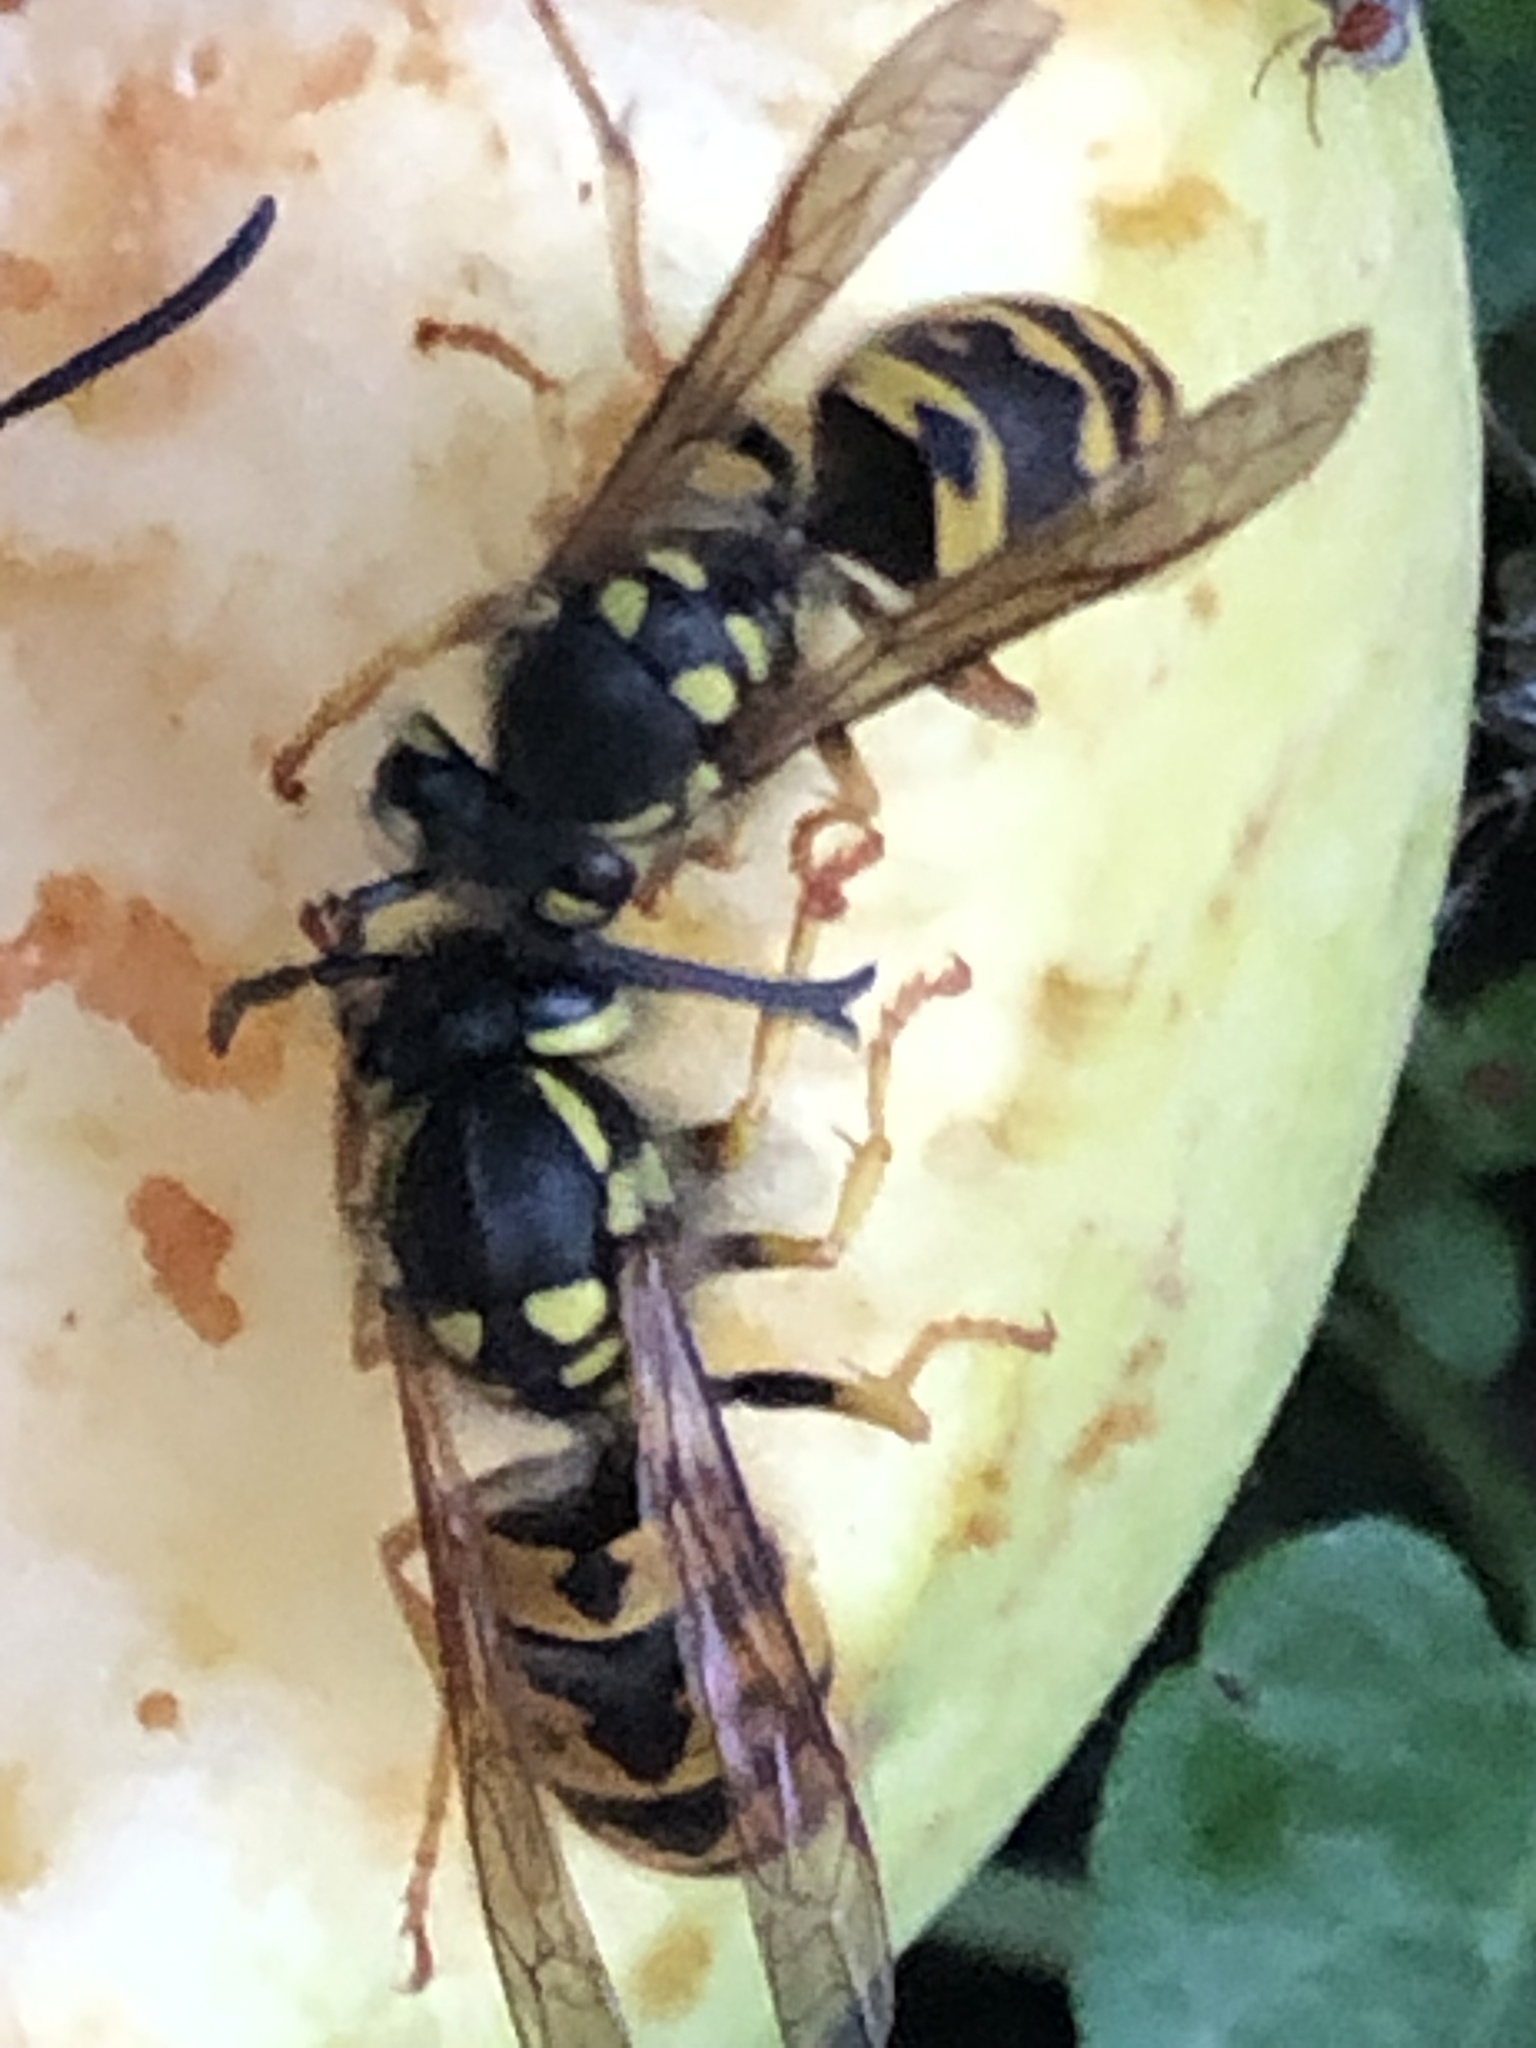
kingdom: Animalia
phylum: Arthropoda
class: Insecta
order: Hymenoptera
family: Vespidae
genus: Vespula
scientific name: Vespula germanica
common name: German wasp
